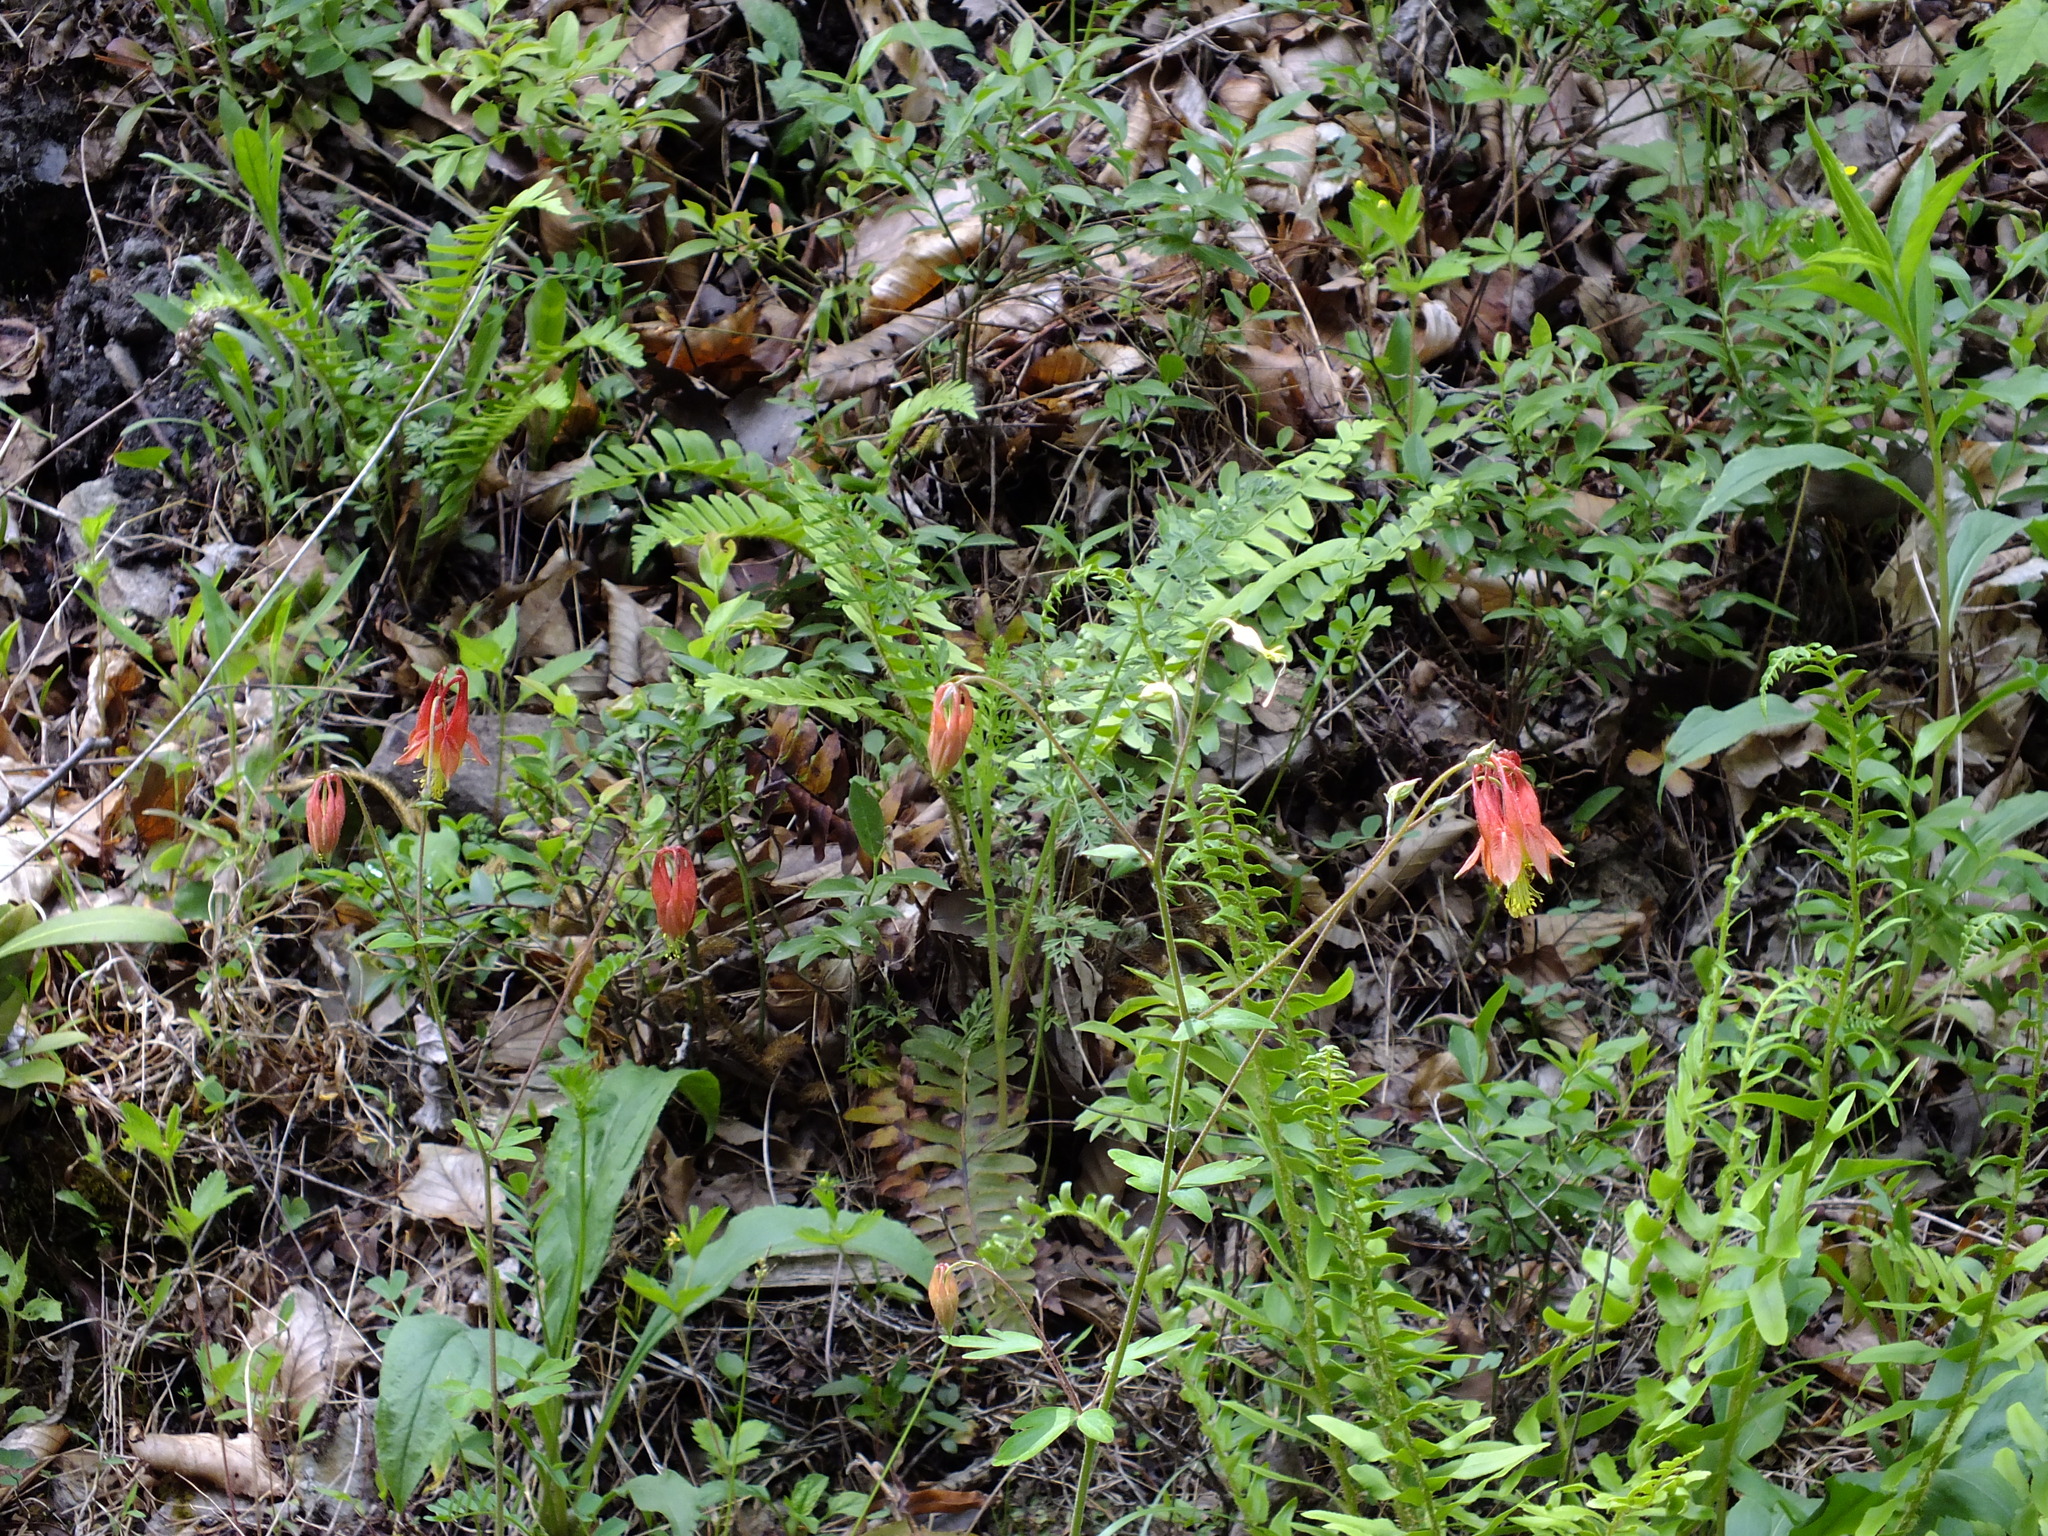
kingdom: Plantae
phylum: Tracheophyta
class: Magnoliopsida
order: Ranunculales
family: Ranunculaceae
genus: Aquilegia
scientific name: Aquilegia canadensis
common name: American columbine
